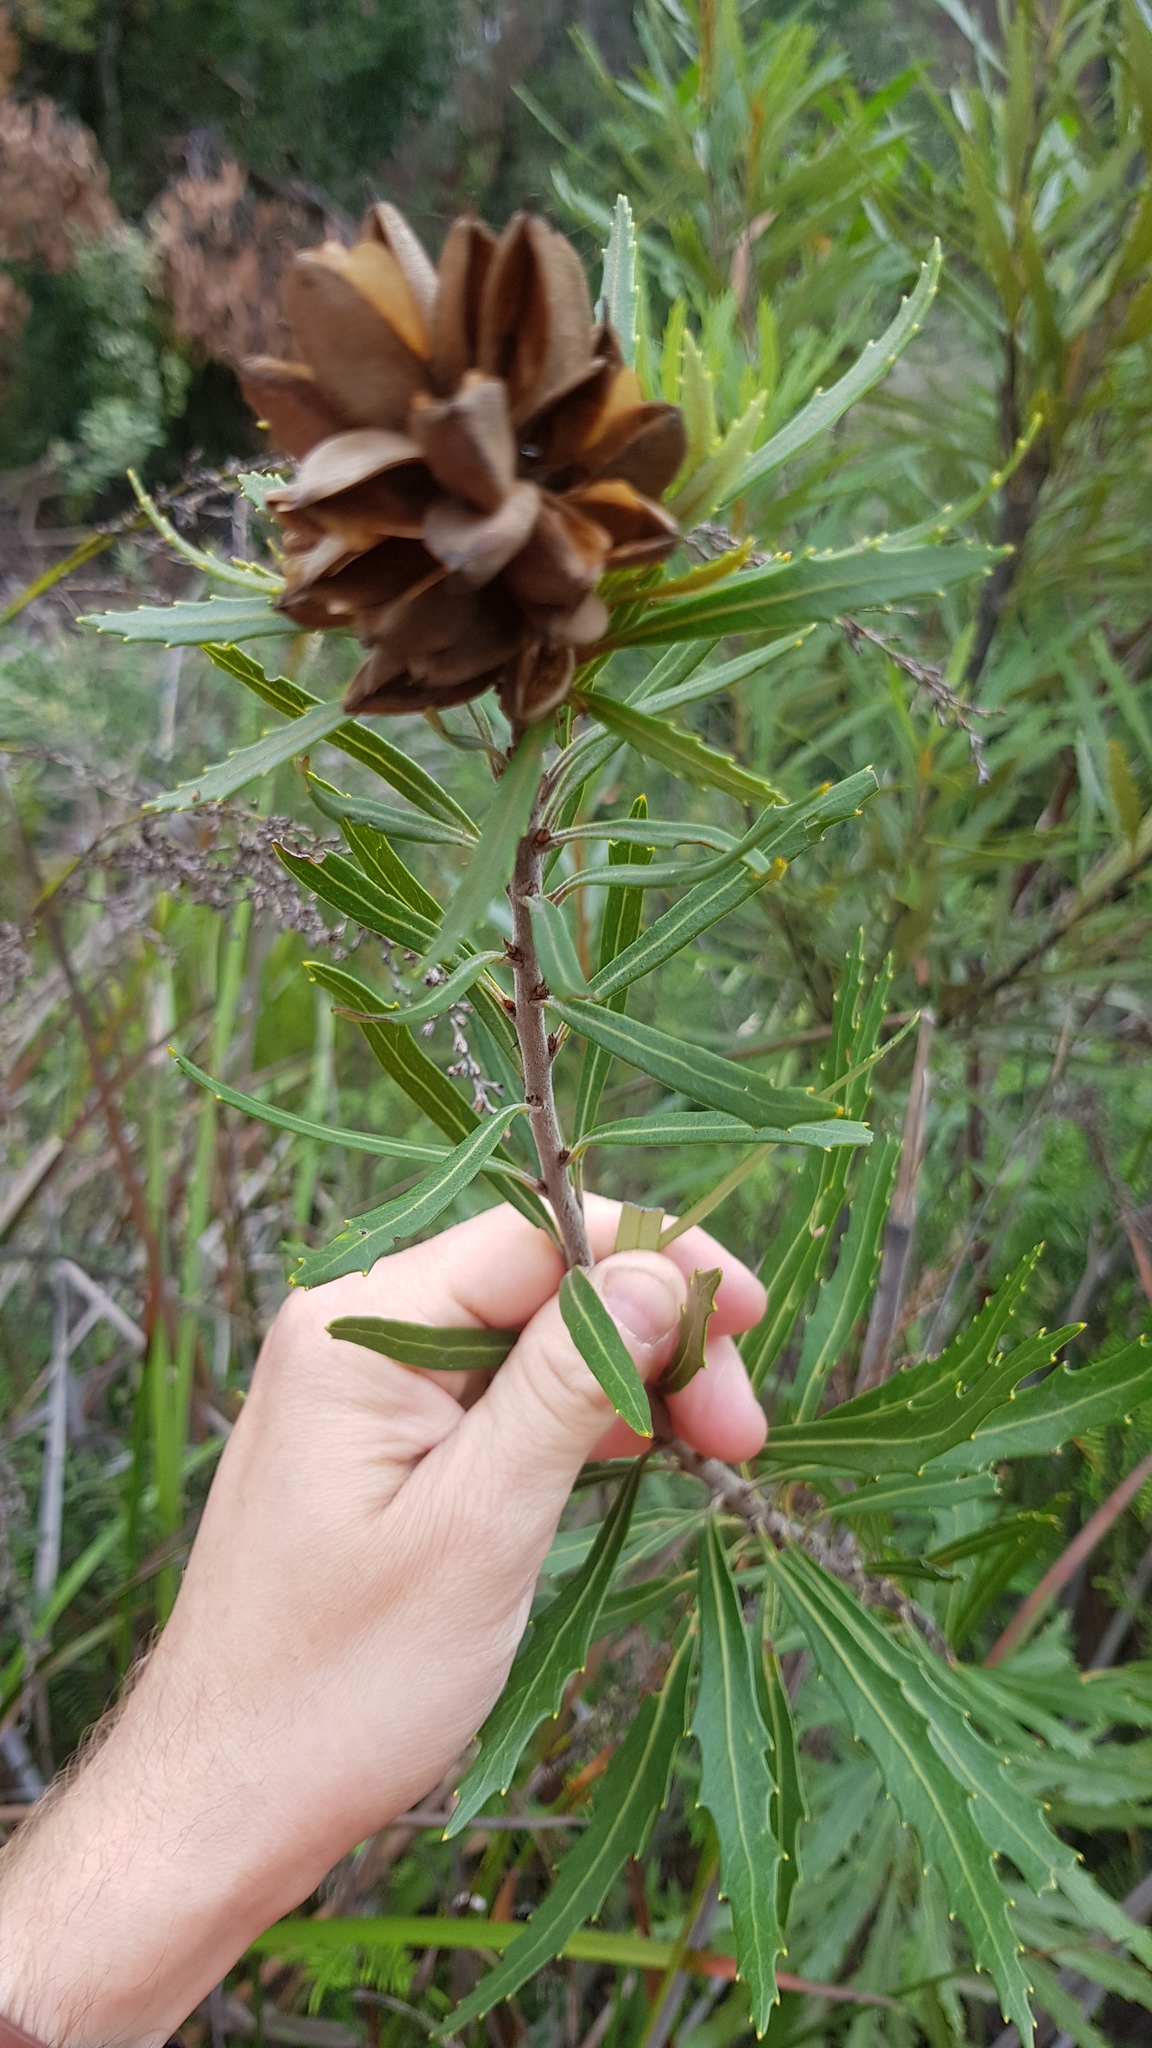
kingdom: Plantae
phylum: Tracheophyta
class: Magnoliopsida
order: Proteales
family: Proteaceae
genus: Orites
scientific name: Orites diversifolius
